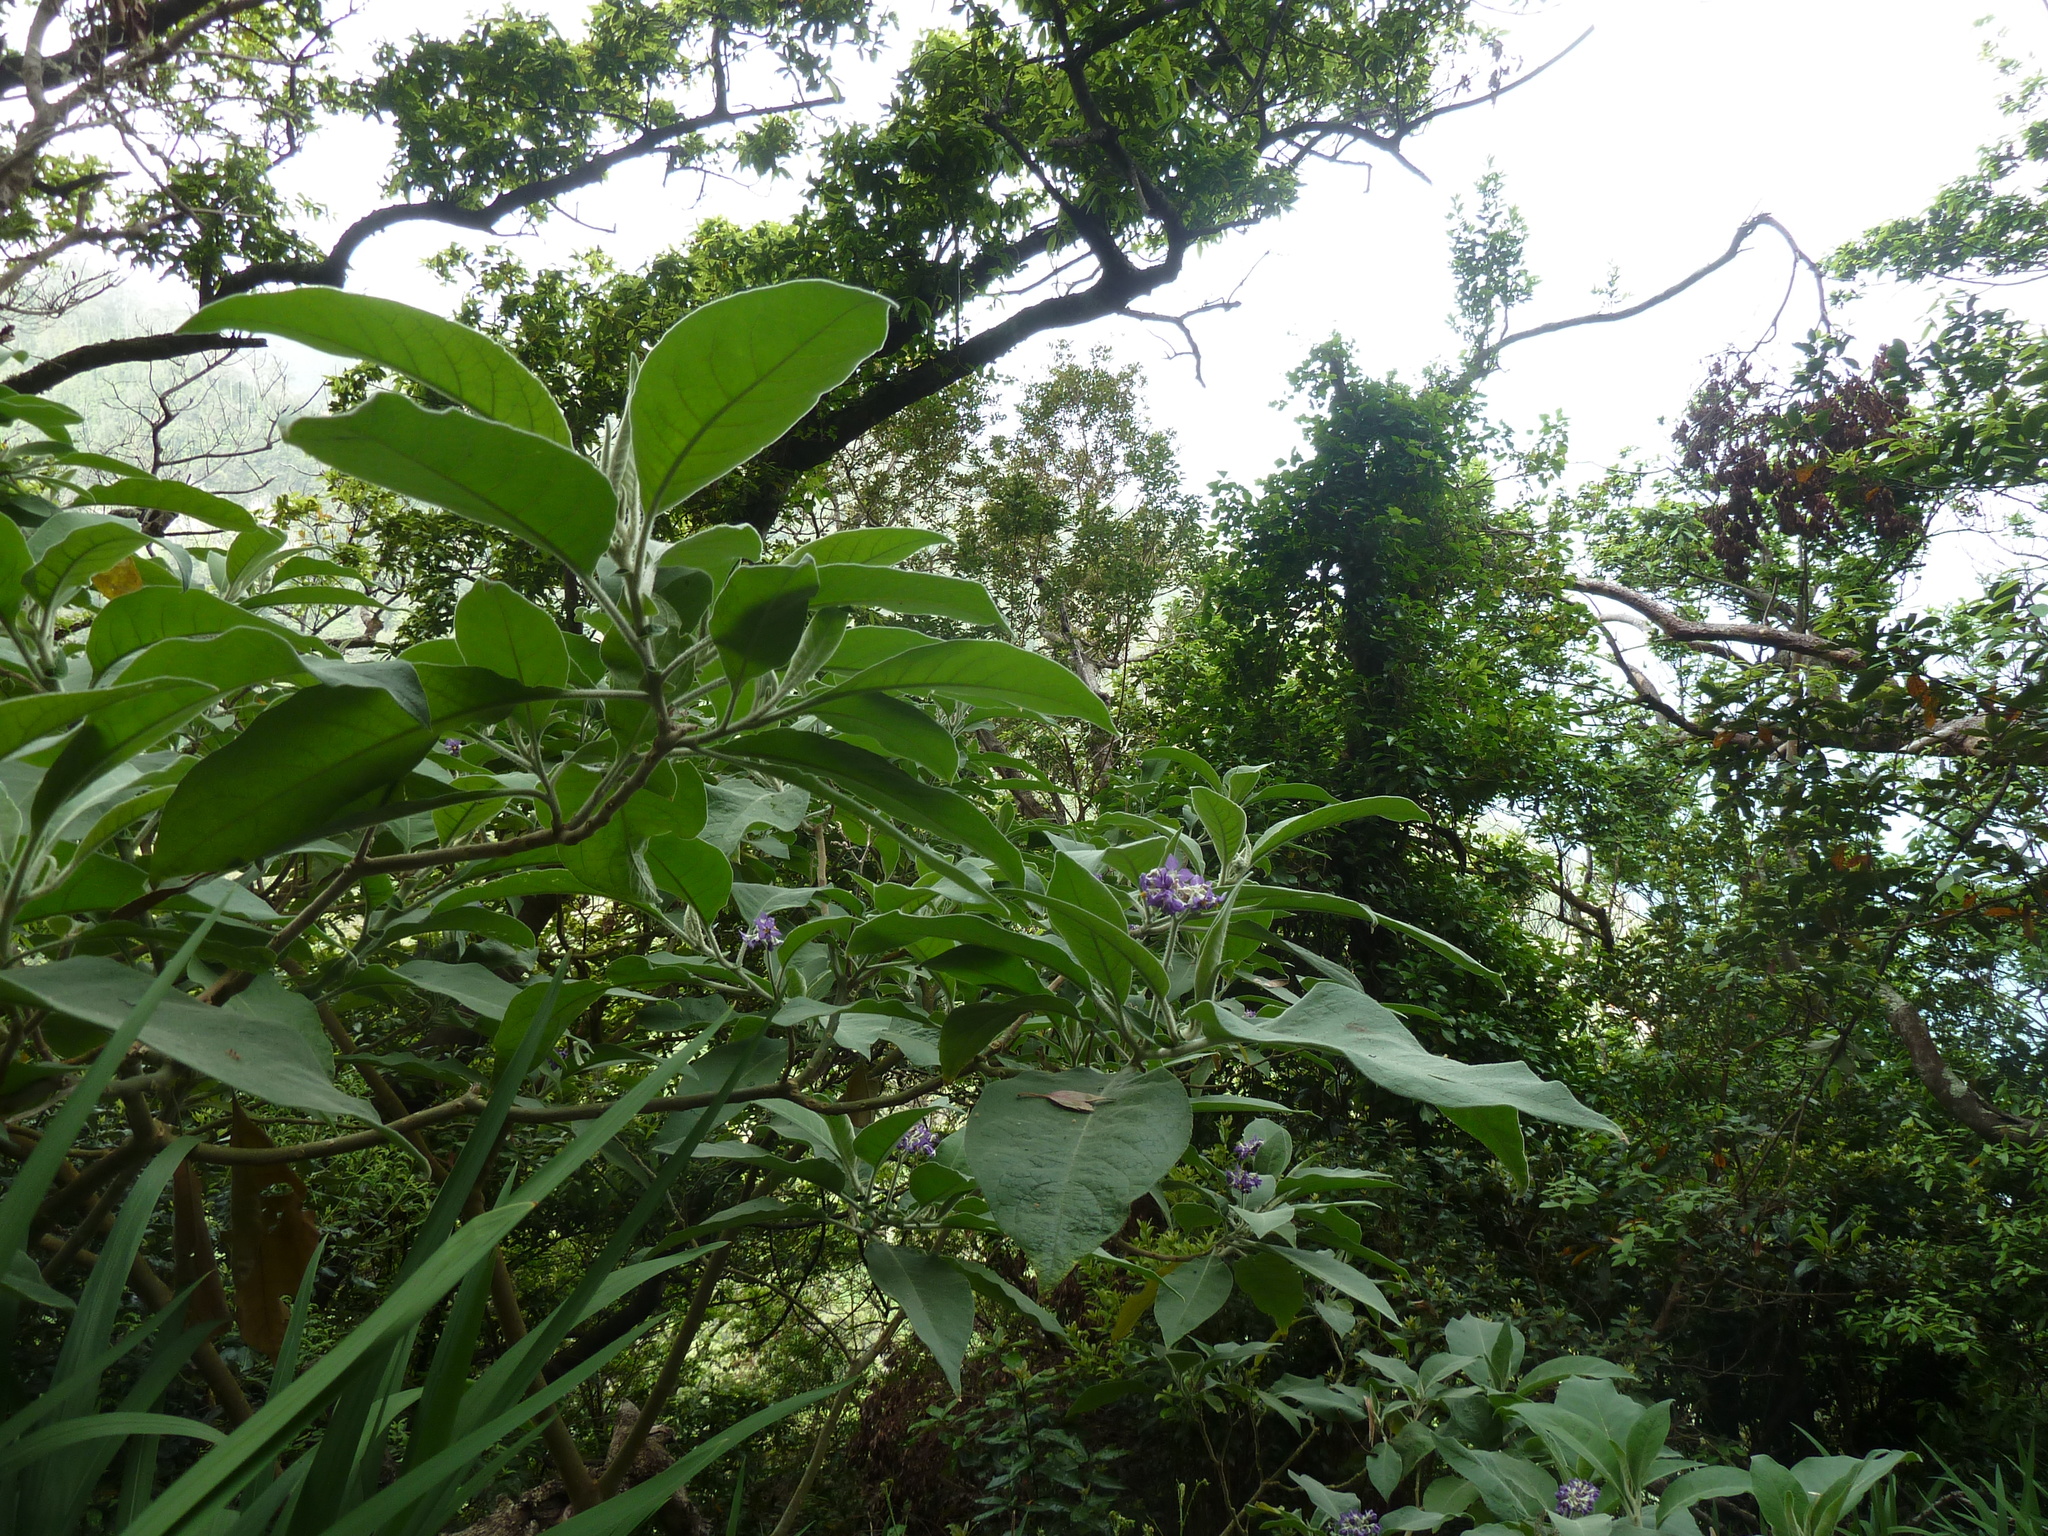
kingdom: Plantae
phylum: Tracheophyta
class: Magnoliopsida
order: Solanales
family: Solanaceae
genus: Solanum
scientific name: Solanum mauritianum
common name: Earleaf nightshade
